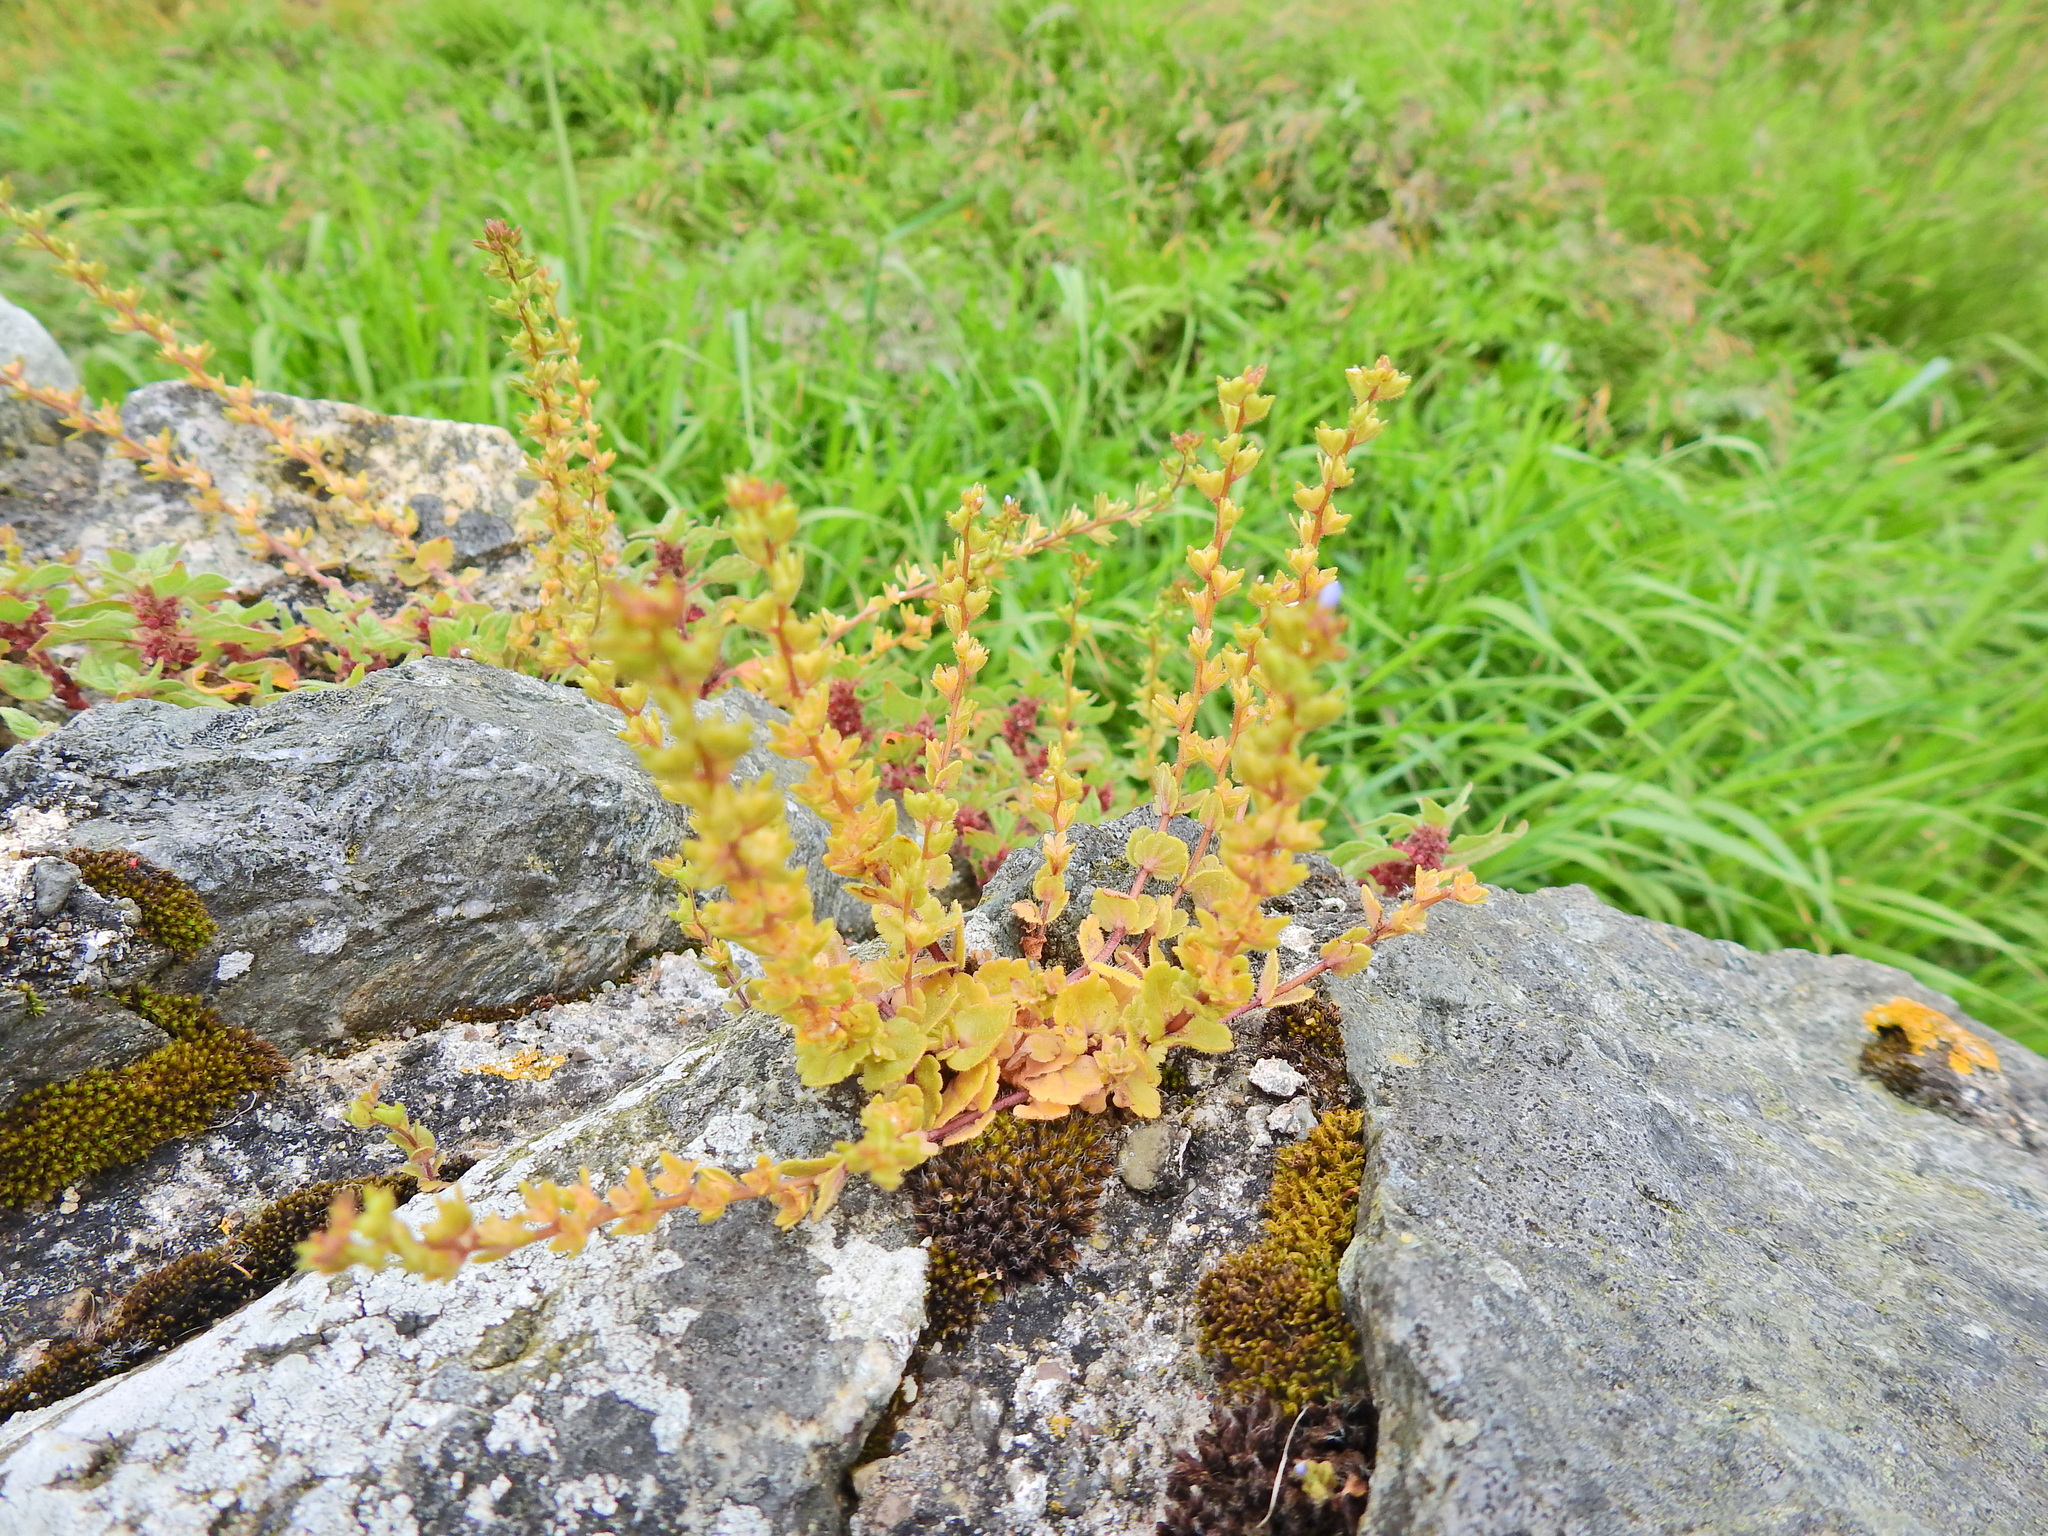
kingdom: Plantae
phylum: Tracheophyta
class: Magnoliopsida
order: Lamiales
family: Plantaginaceae
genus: Veronica
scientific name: Veronica arvensis
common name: Corn speedwell
